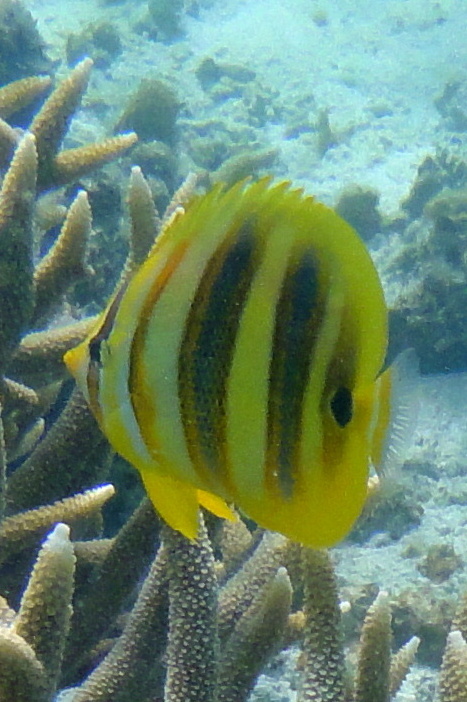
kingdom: Animalia
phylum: Chordata
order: Perciformes
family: Chaetodontidae
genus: Chaetodon
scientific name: Chaetodon rainfordi
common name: Rainford's butterflyfish
